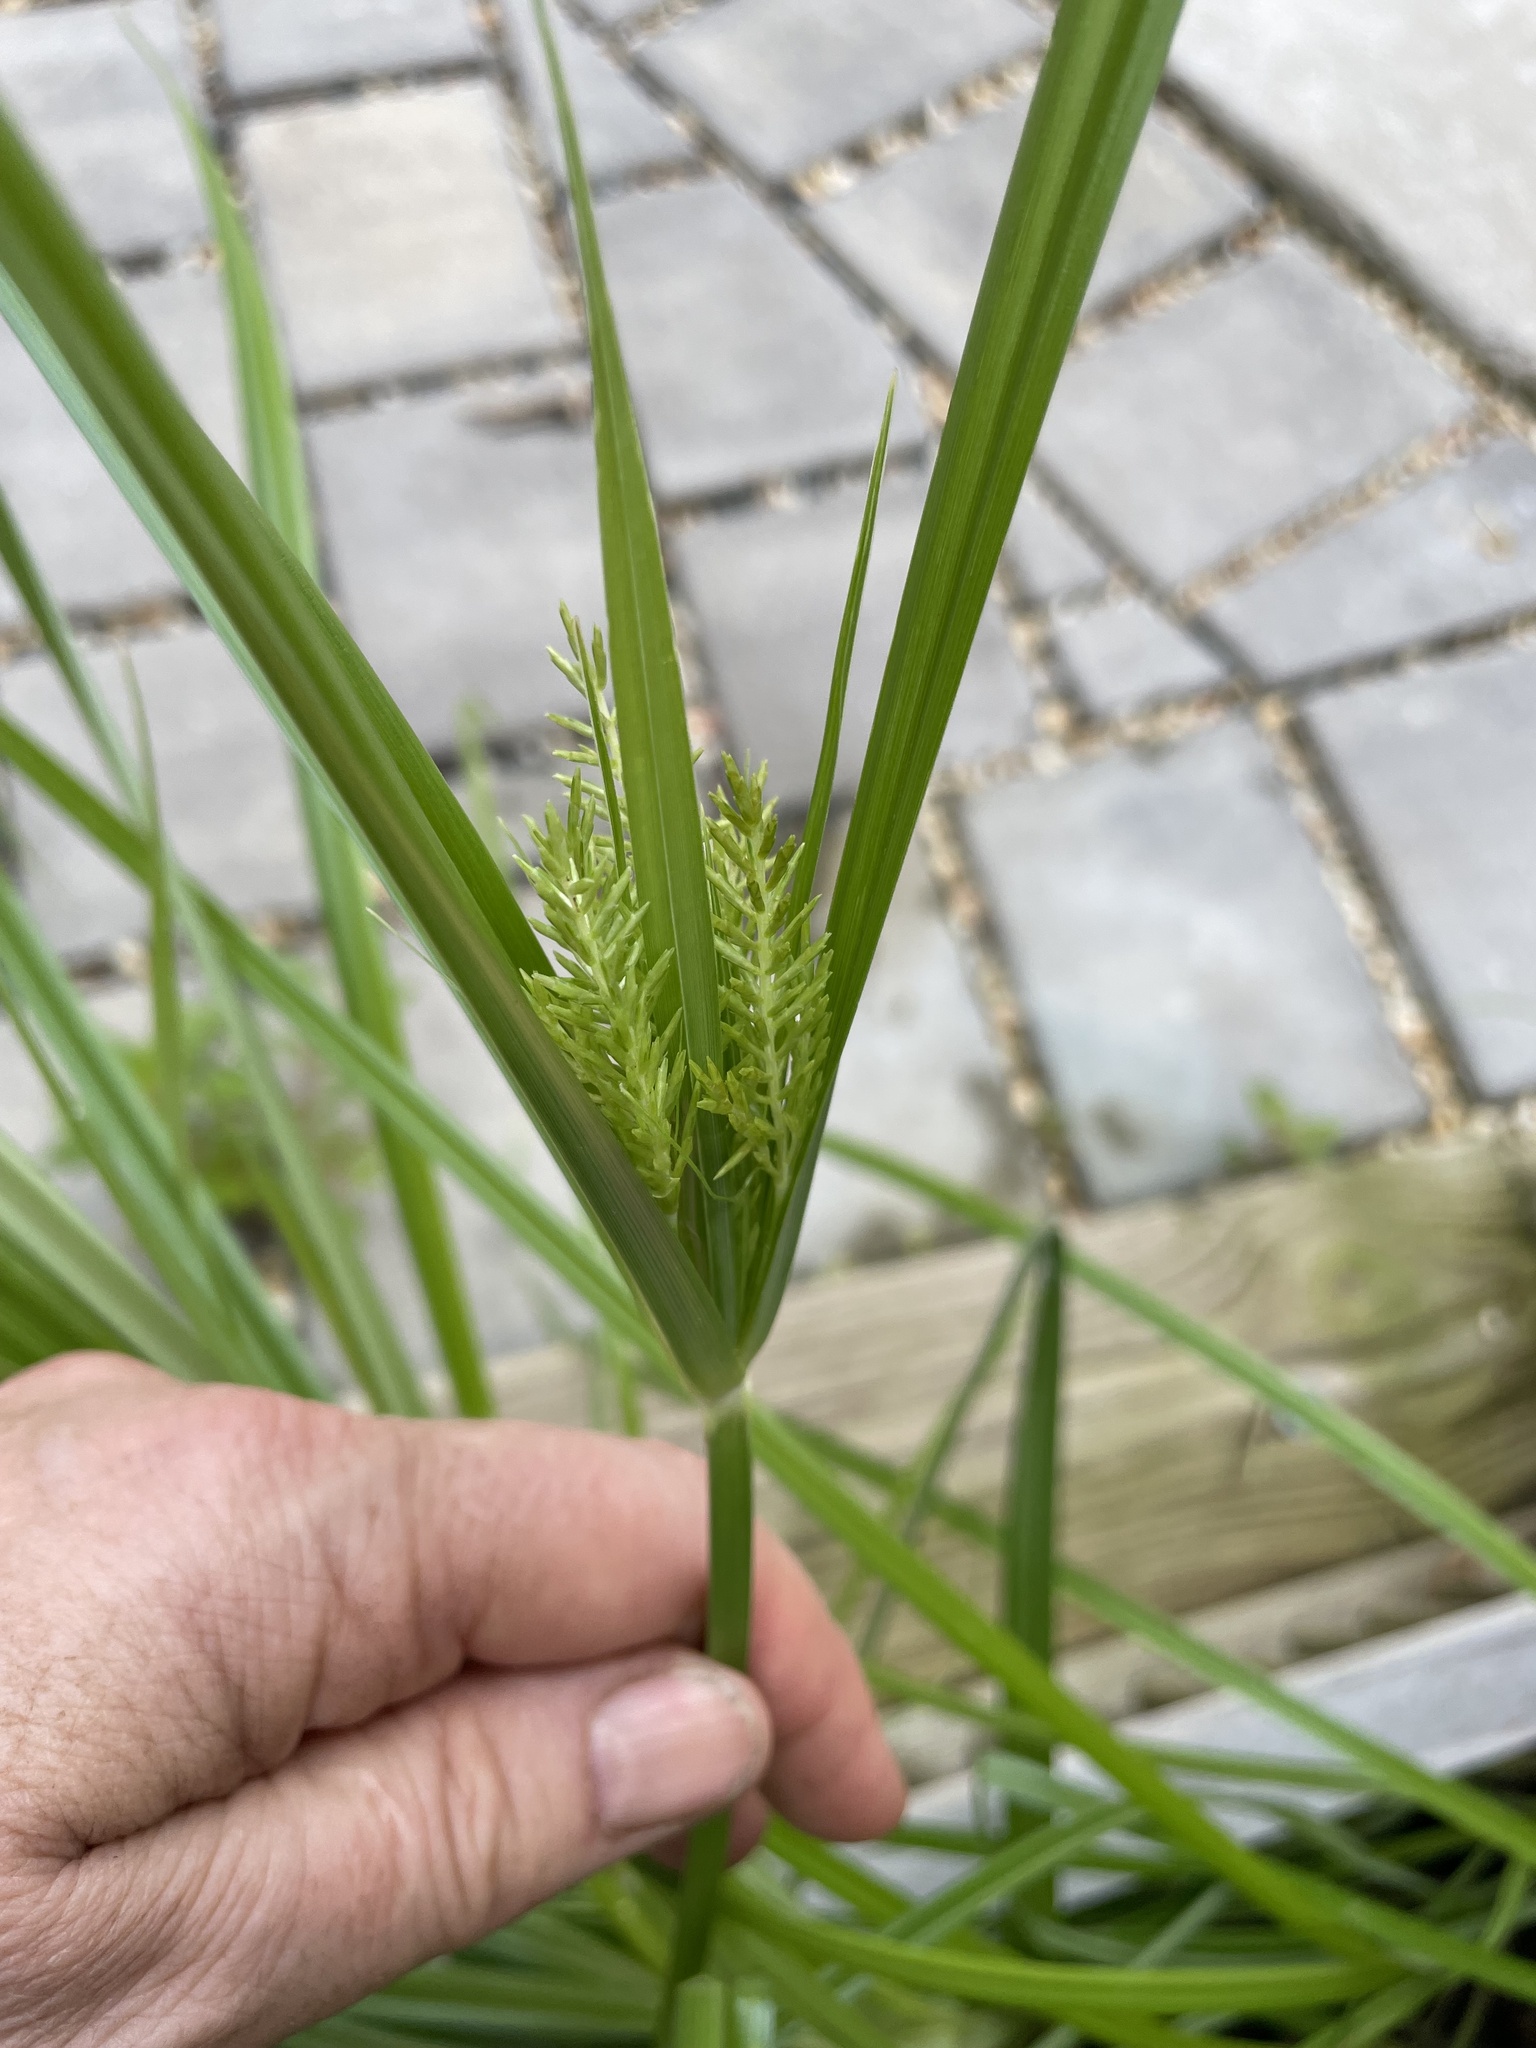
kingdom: Plantae
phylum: Tracheophyta
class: Liliopsida
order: Poales
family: Cyperaceae
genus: Cyperus
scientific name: Cyperus esculentus
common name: Yellow nutsedge
